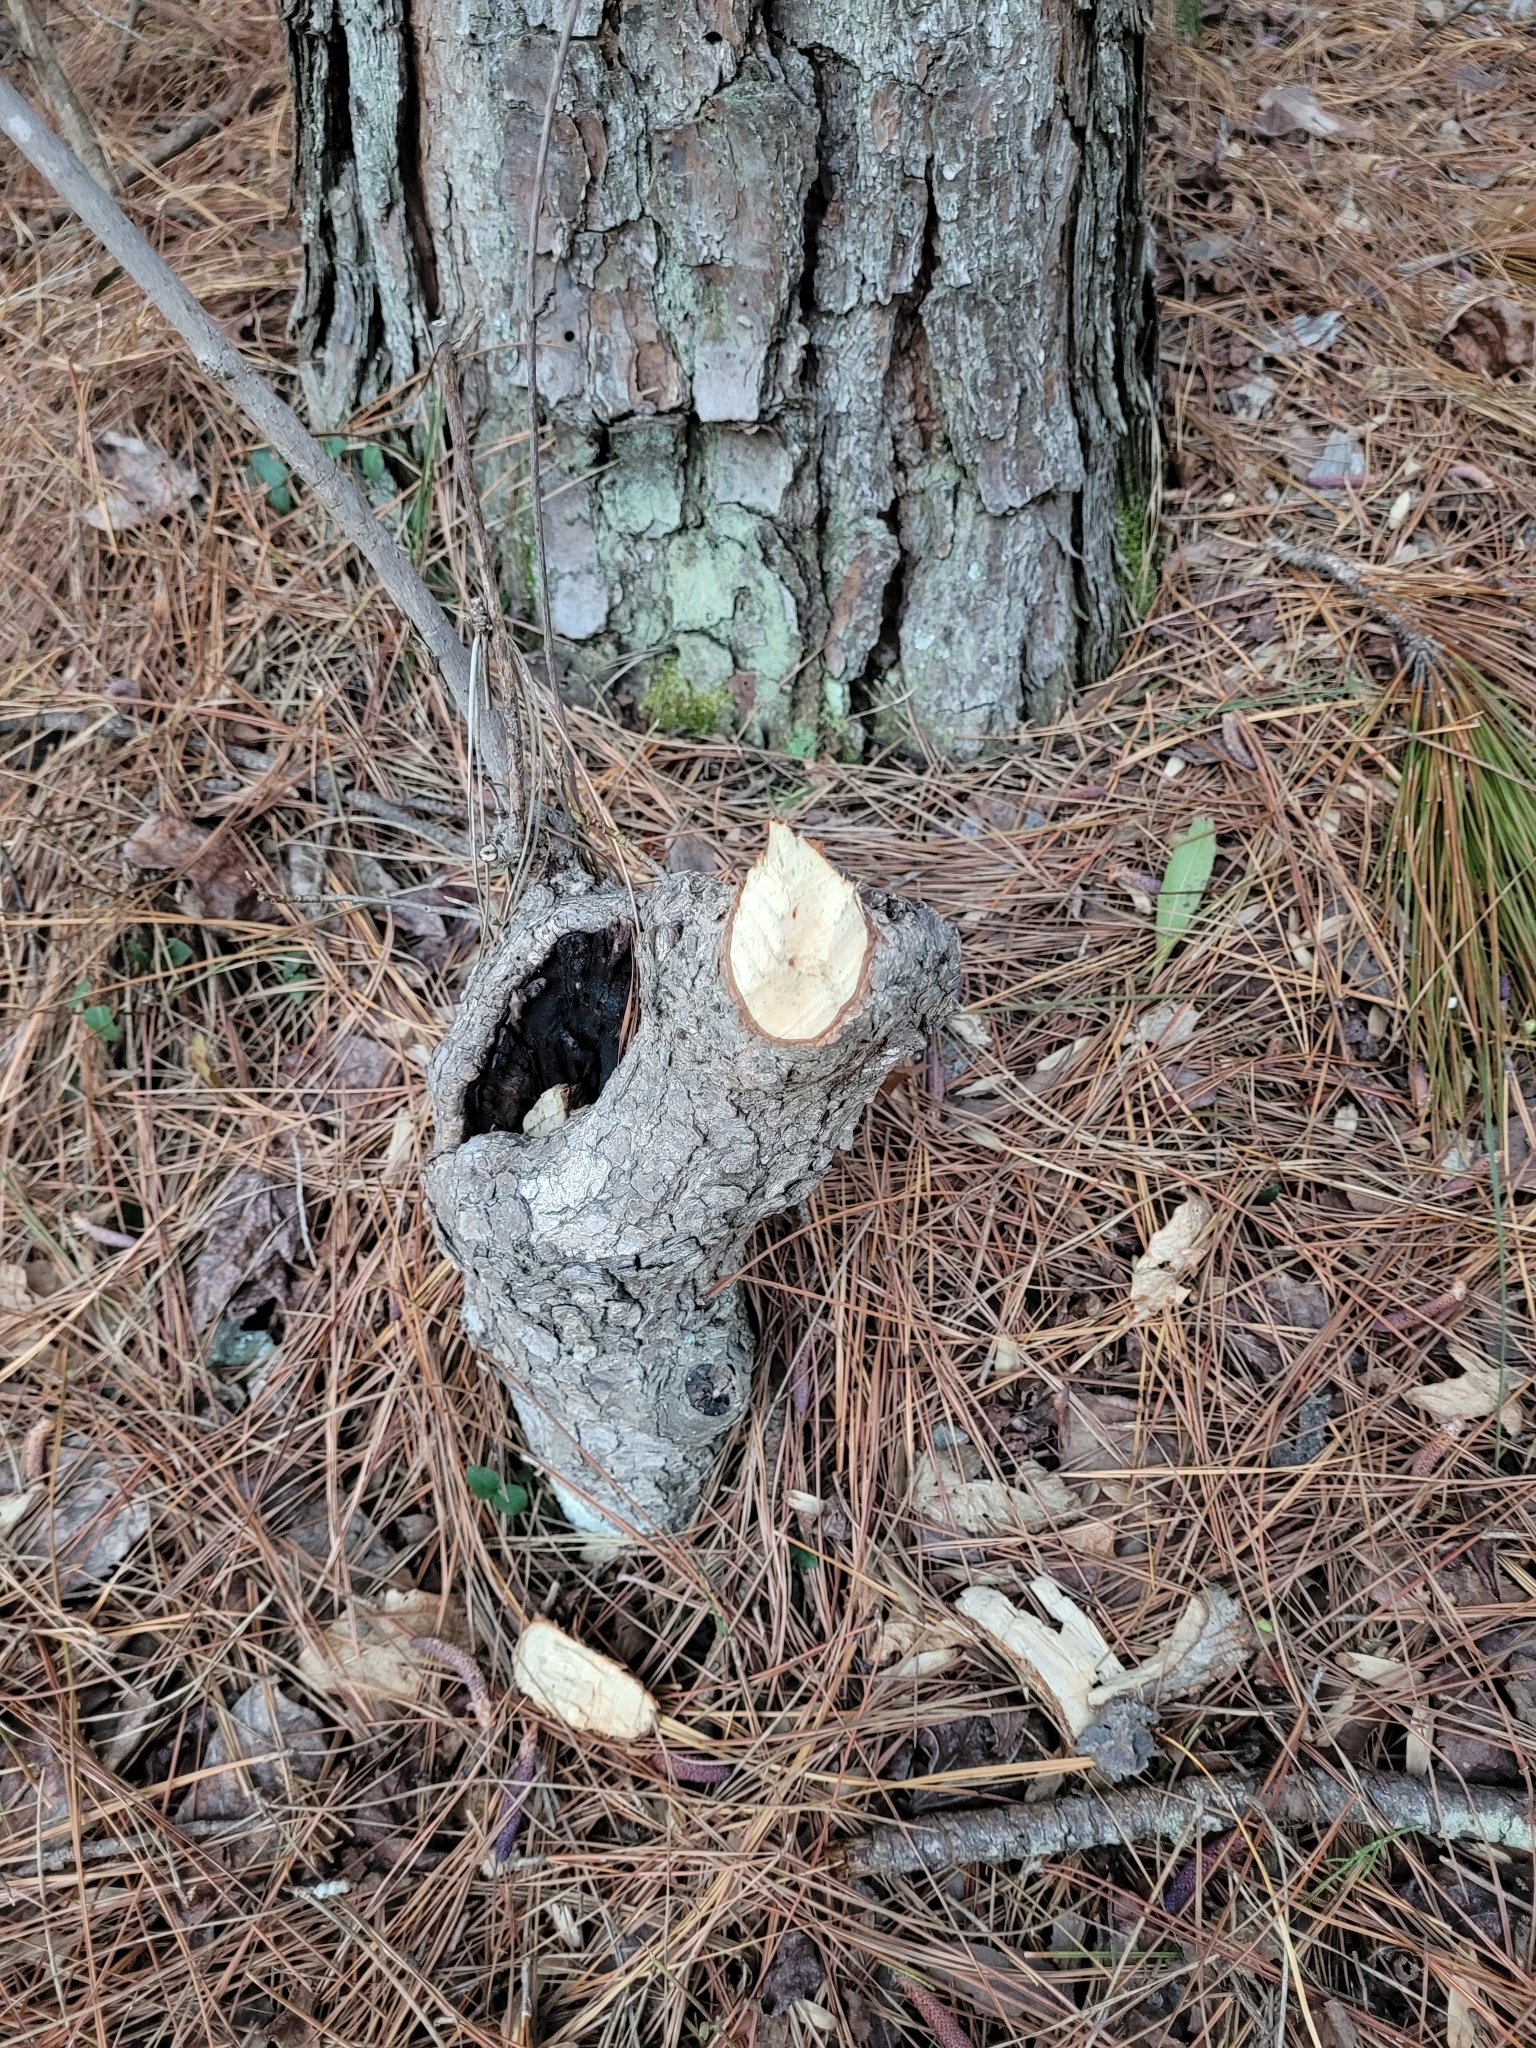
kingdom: Animalia
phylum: Chordata
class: Mammalia
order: Rodentia
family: Castoridae
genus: Castor
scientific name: Castor canadensis
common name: American beaver
